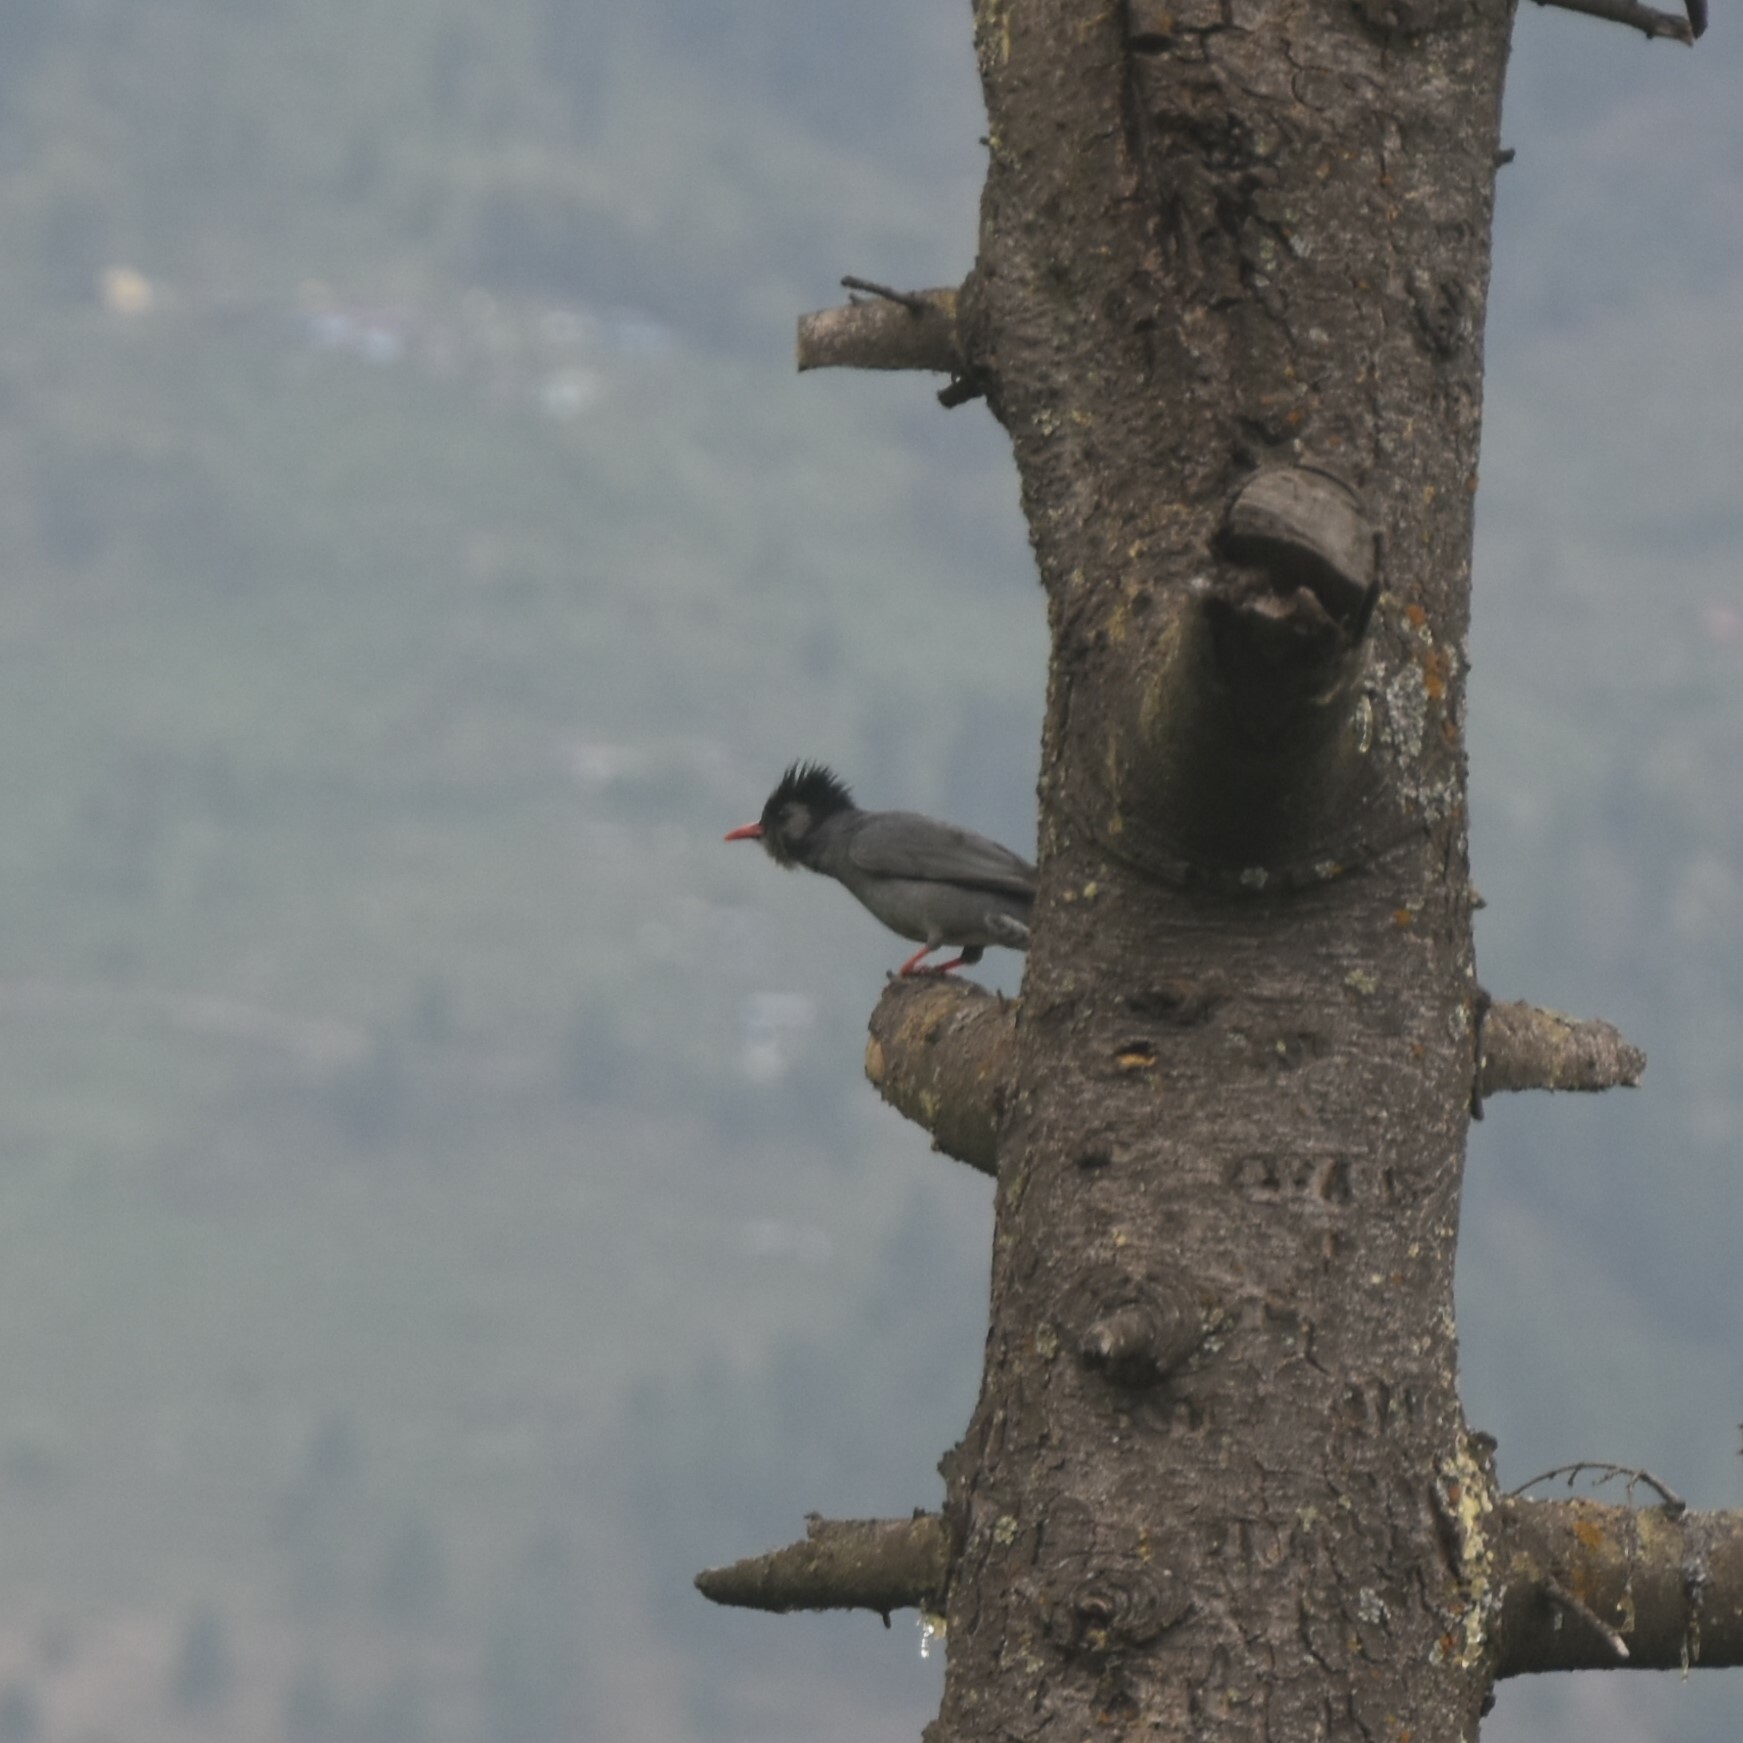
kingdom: Animalia
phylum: Chordata
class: Aves
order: Passeriformes
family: Pycnonotidae
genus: Hypsipetes
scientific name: Hypsipetes leucocephalus
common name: Black bulbul
